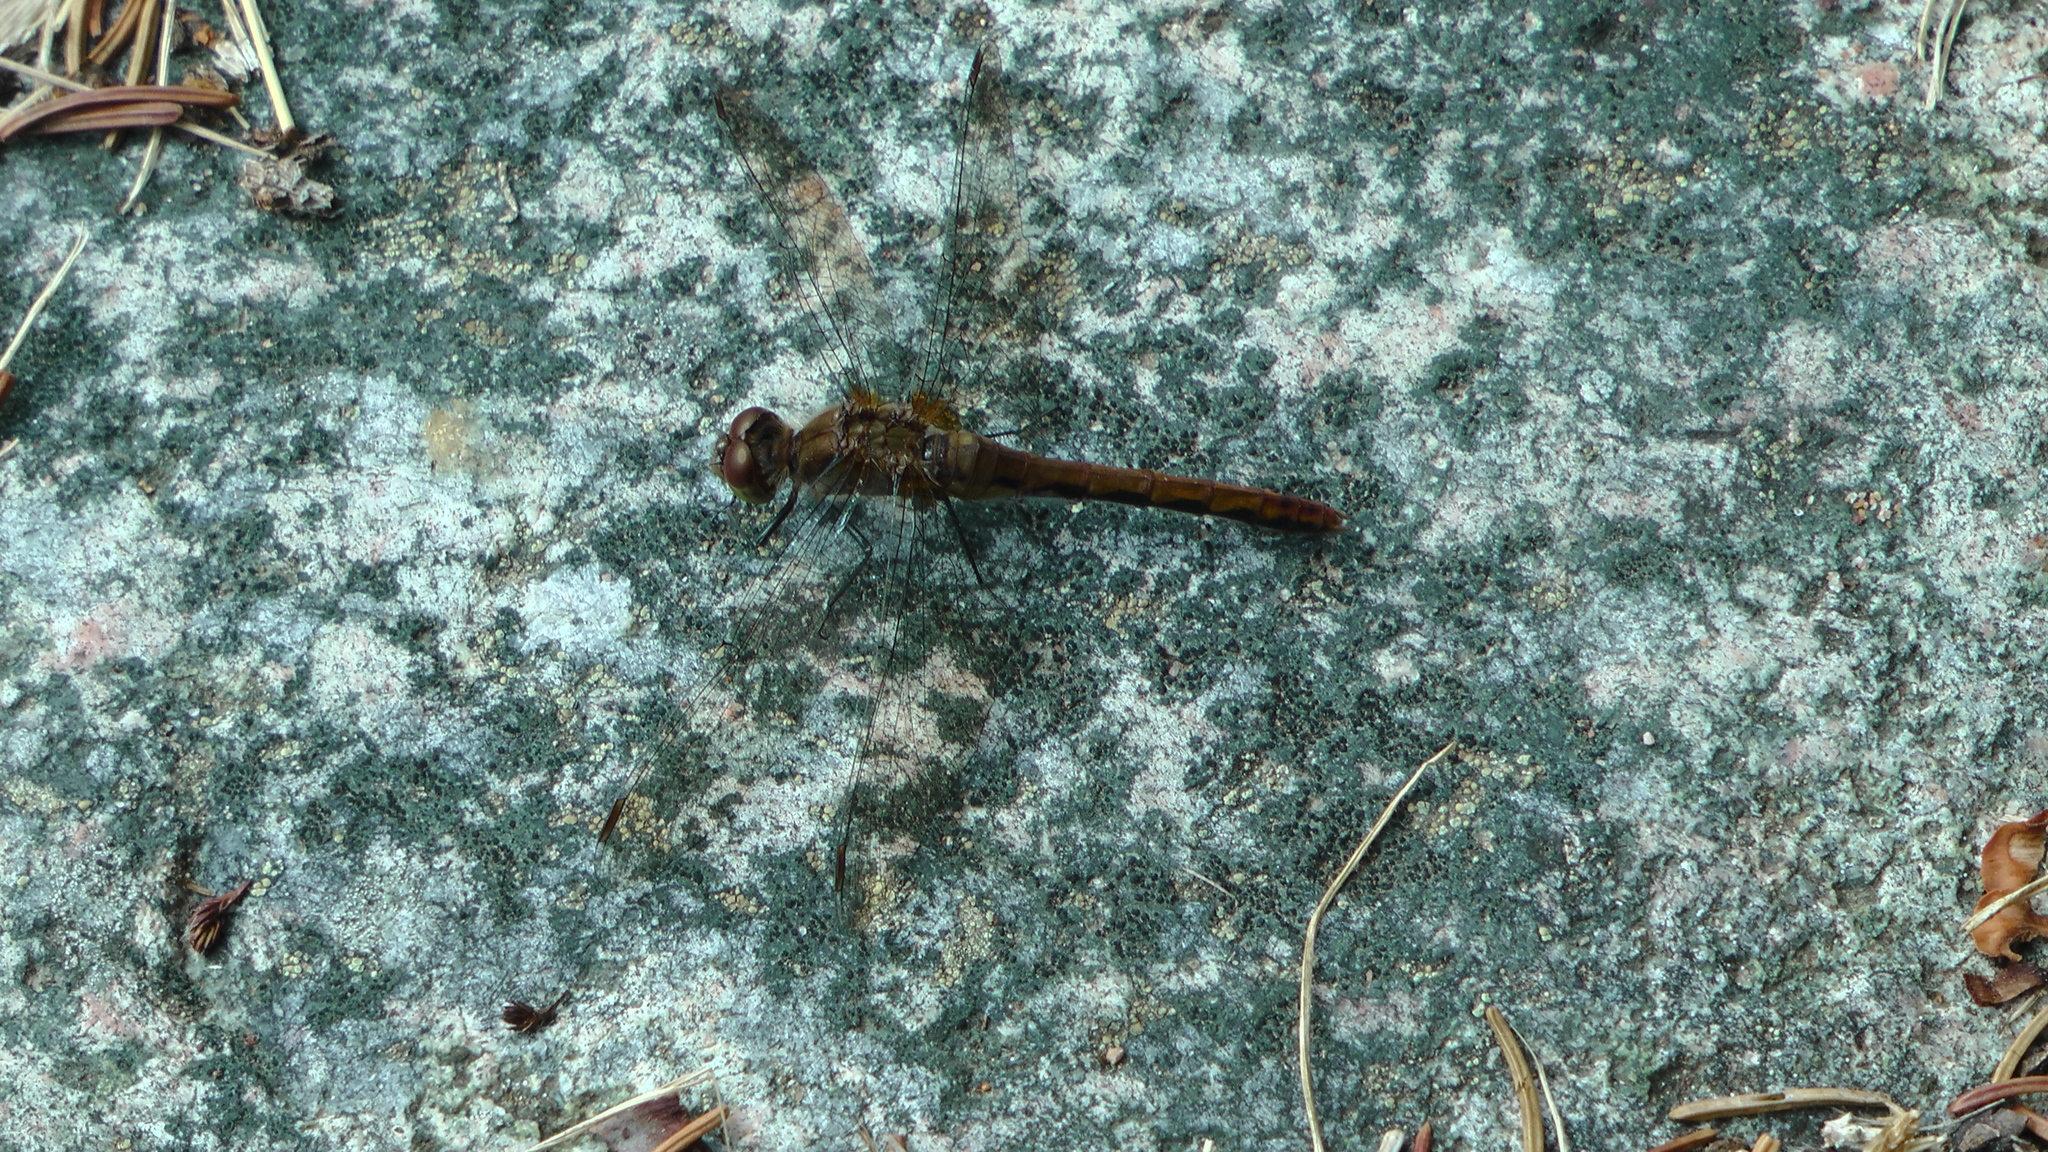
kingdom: Animalia
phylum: Arthropoda
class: Insecta
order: Odonata
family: Libellulidae
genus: Sympetrum
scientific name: Sympetrum
